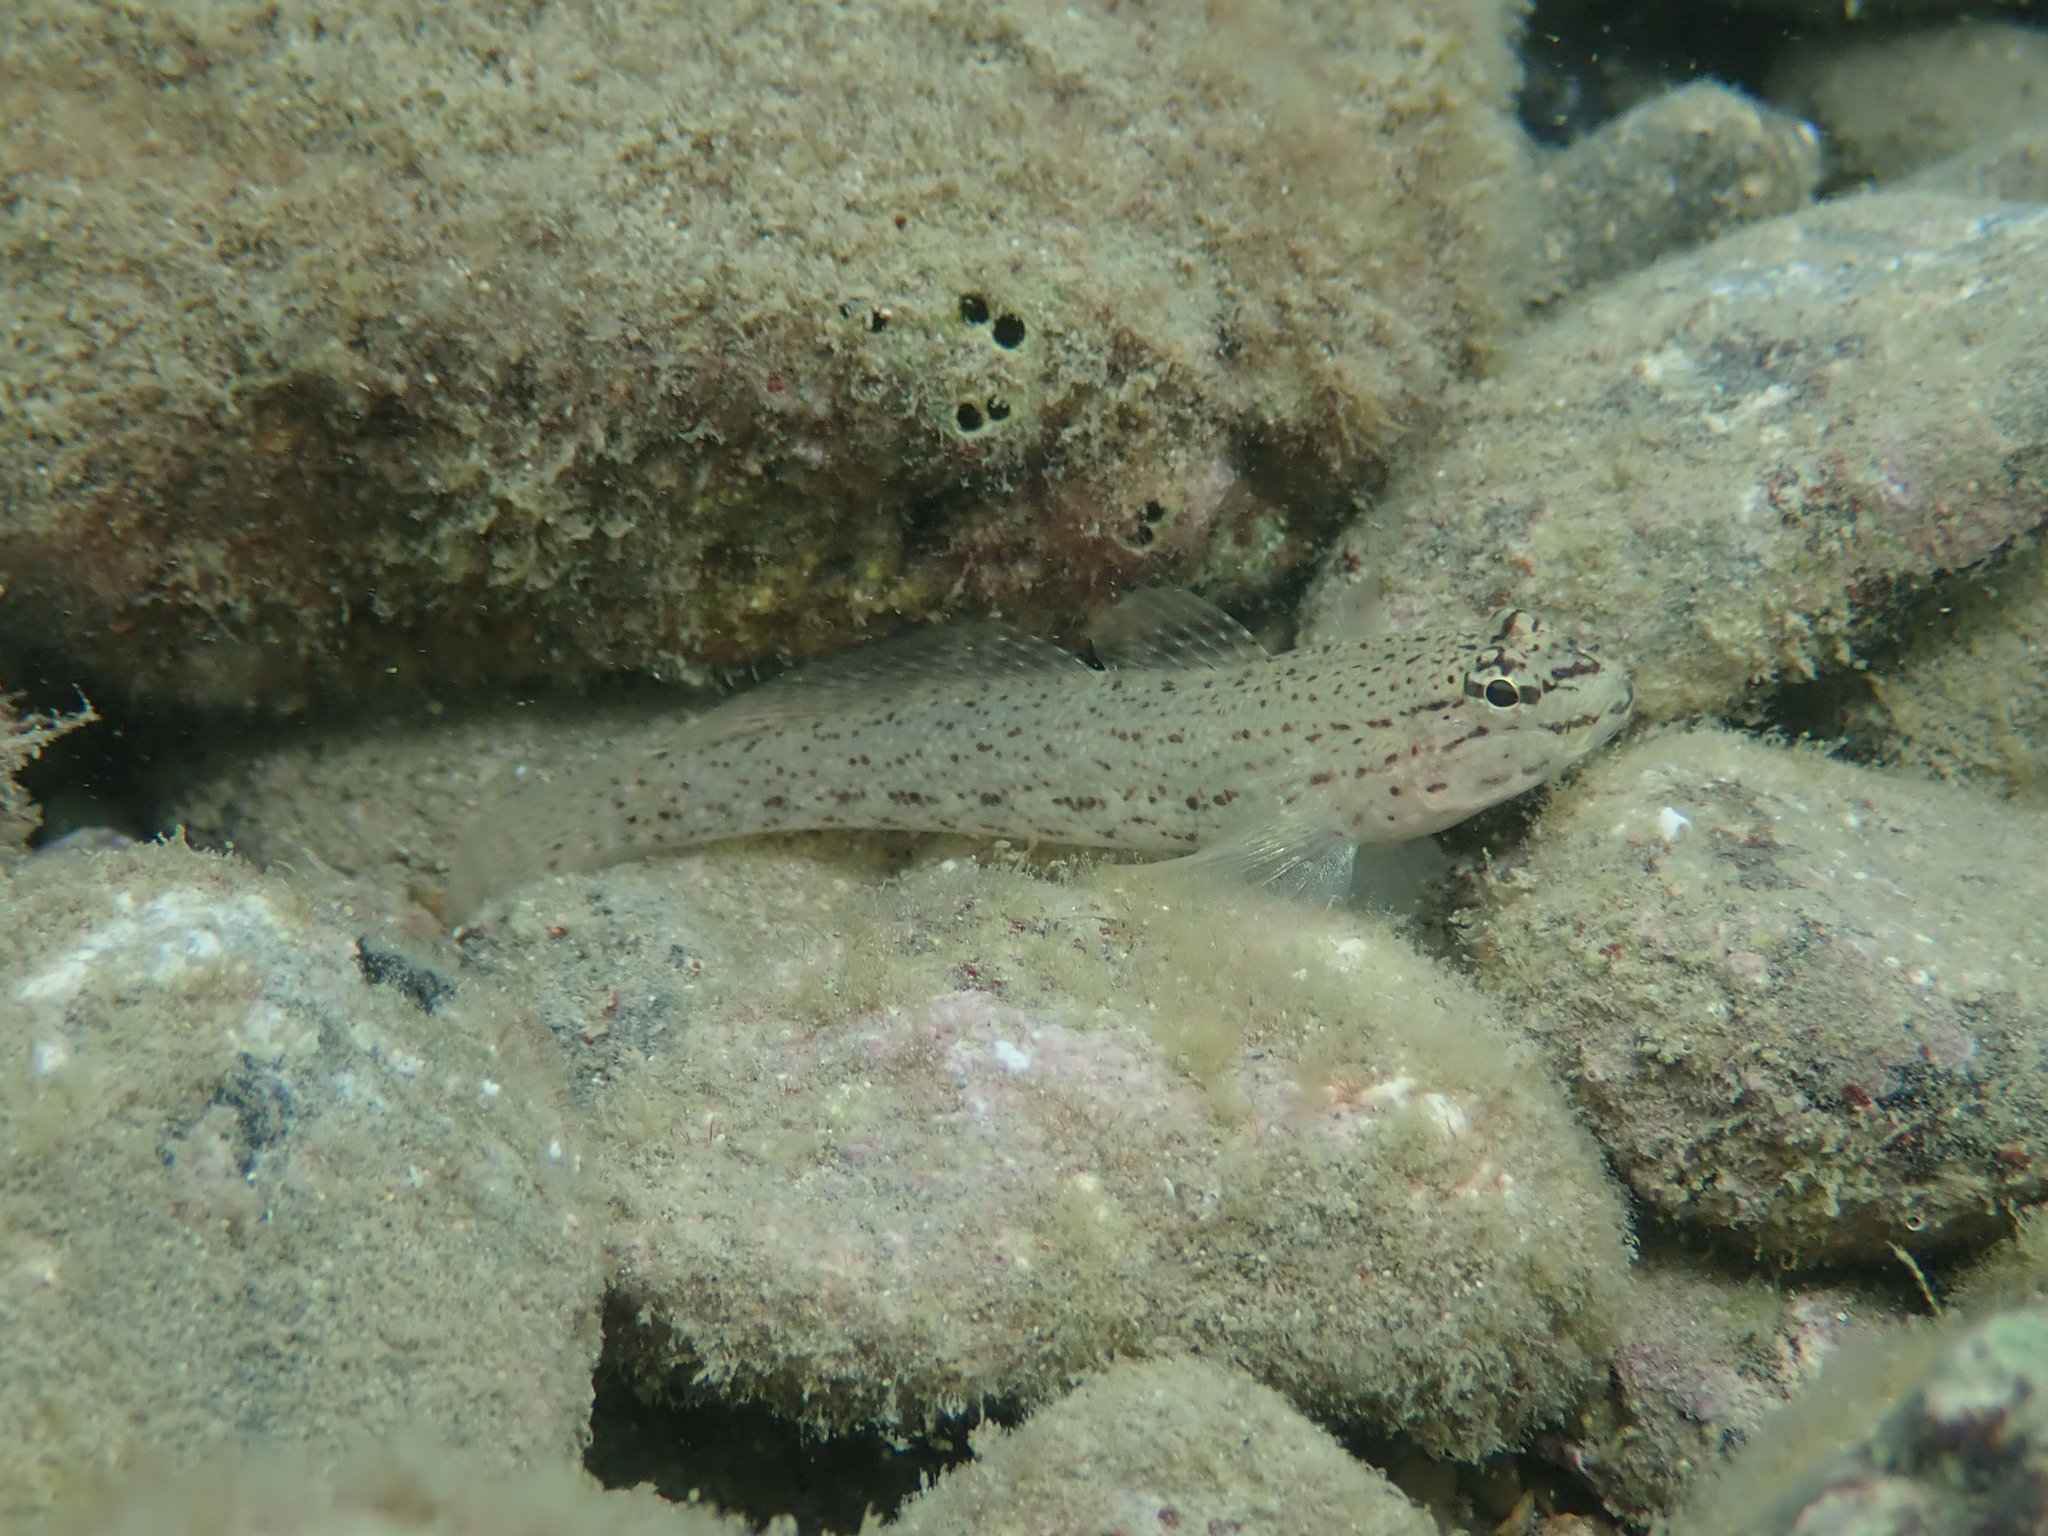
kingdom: Animalia
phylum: Chordata
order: Perciformes
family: Gobiidae
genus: Gobius
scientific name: Gobius bucchichi
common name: Bucchich's goby
